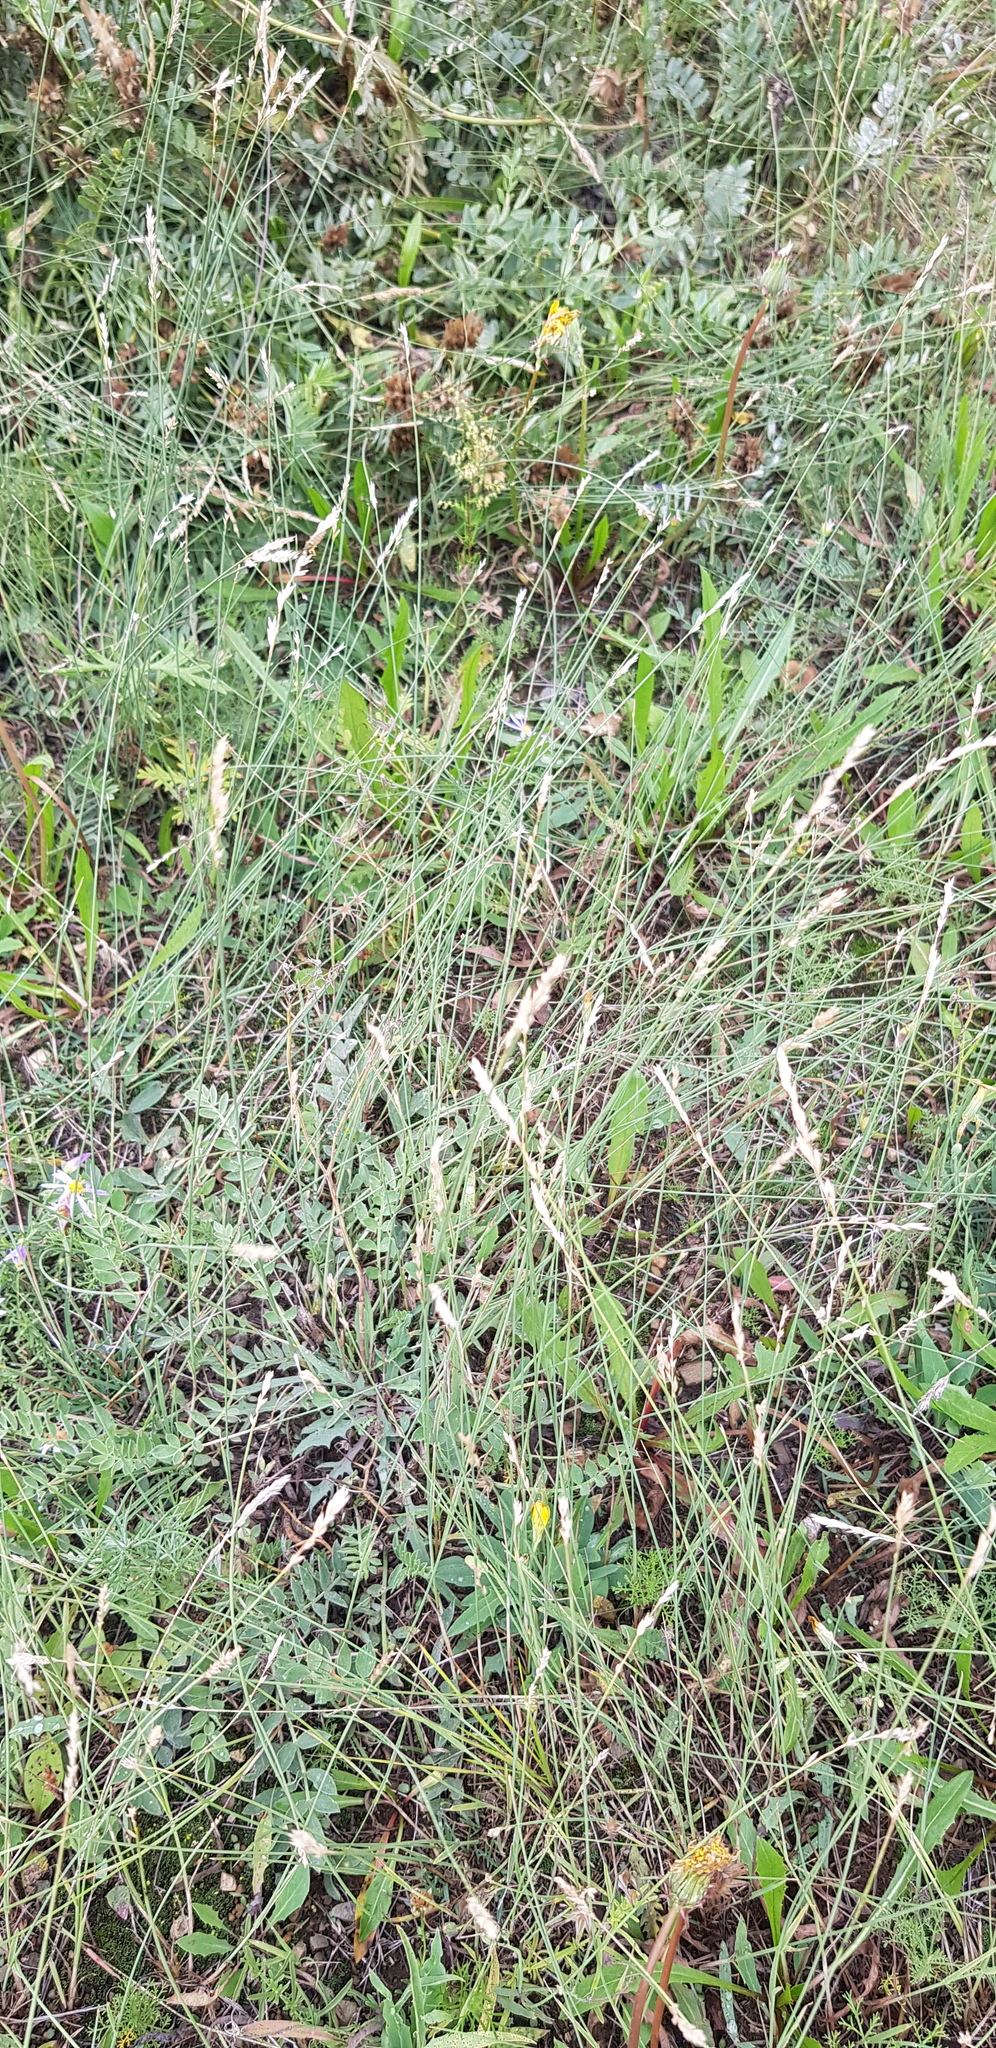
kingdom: Plantae
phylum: Tracheophyta
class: Liliopsida
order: Poales
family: Poaceae
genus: Festuca
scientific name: Festuca lenensis
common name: Lena river fescue
